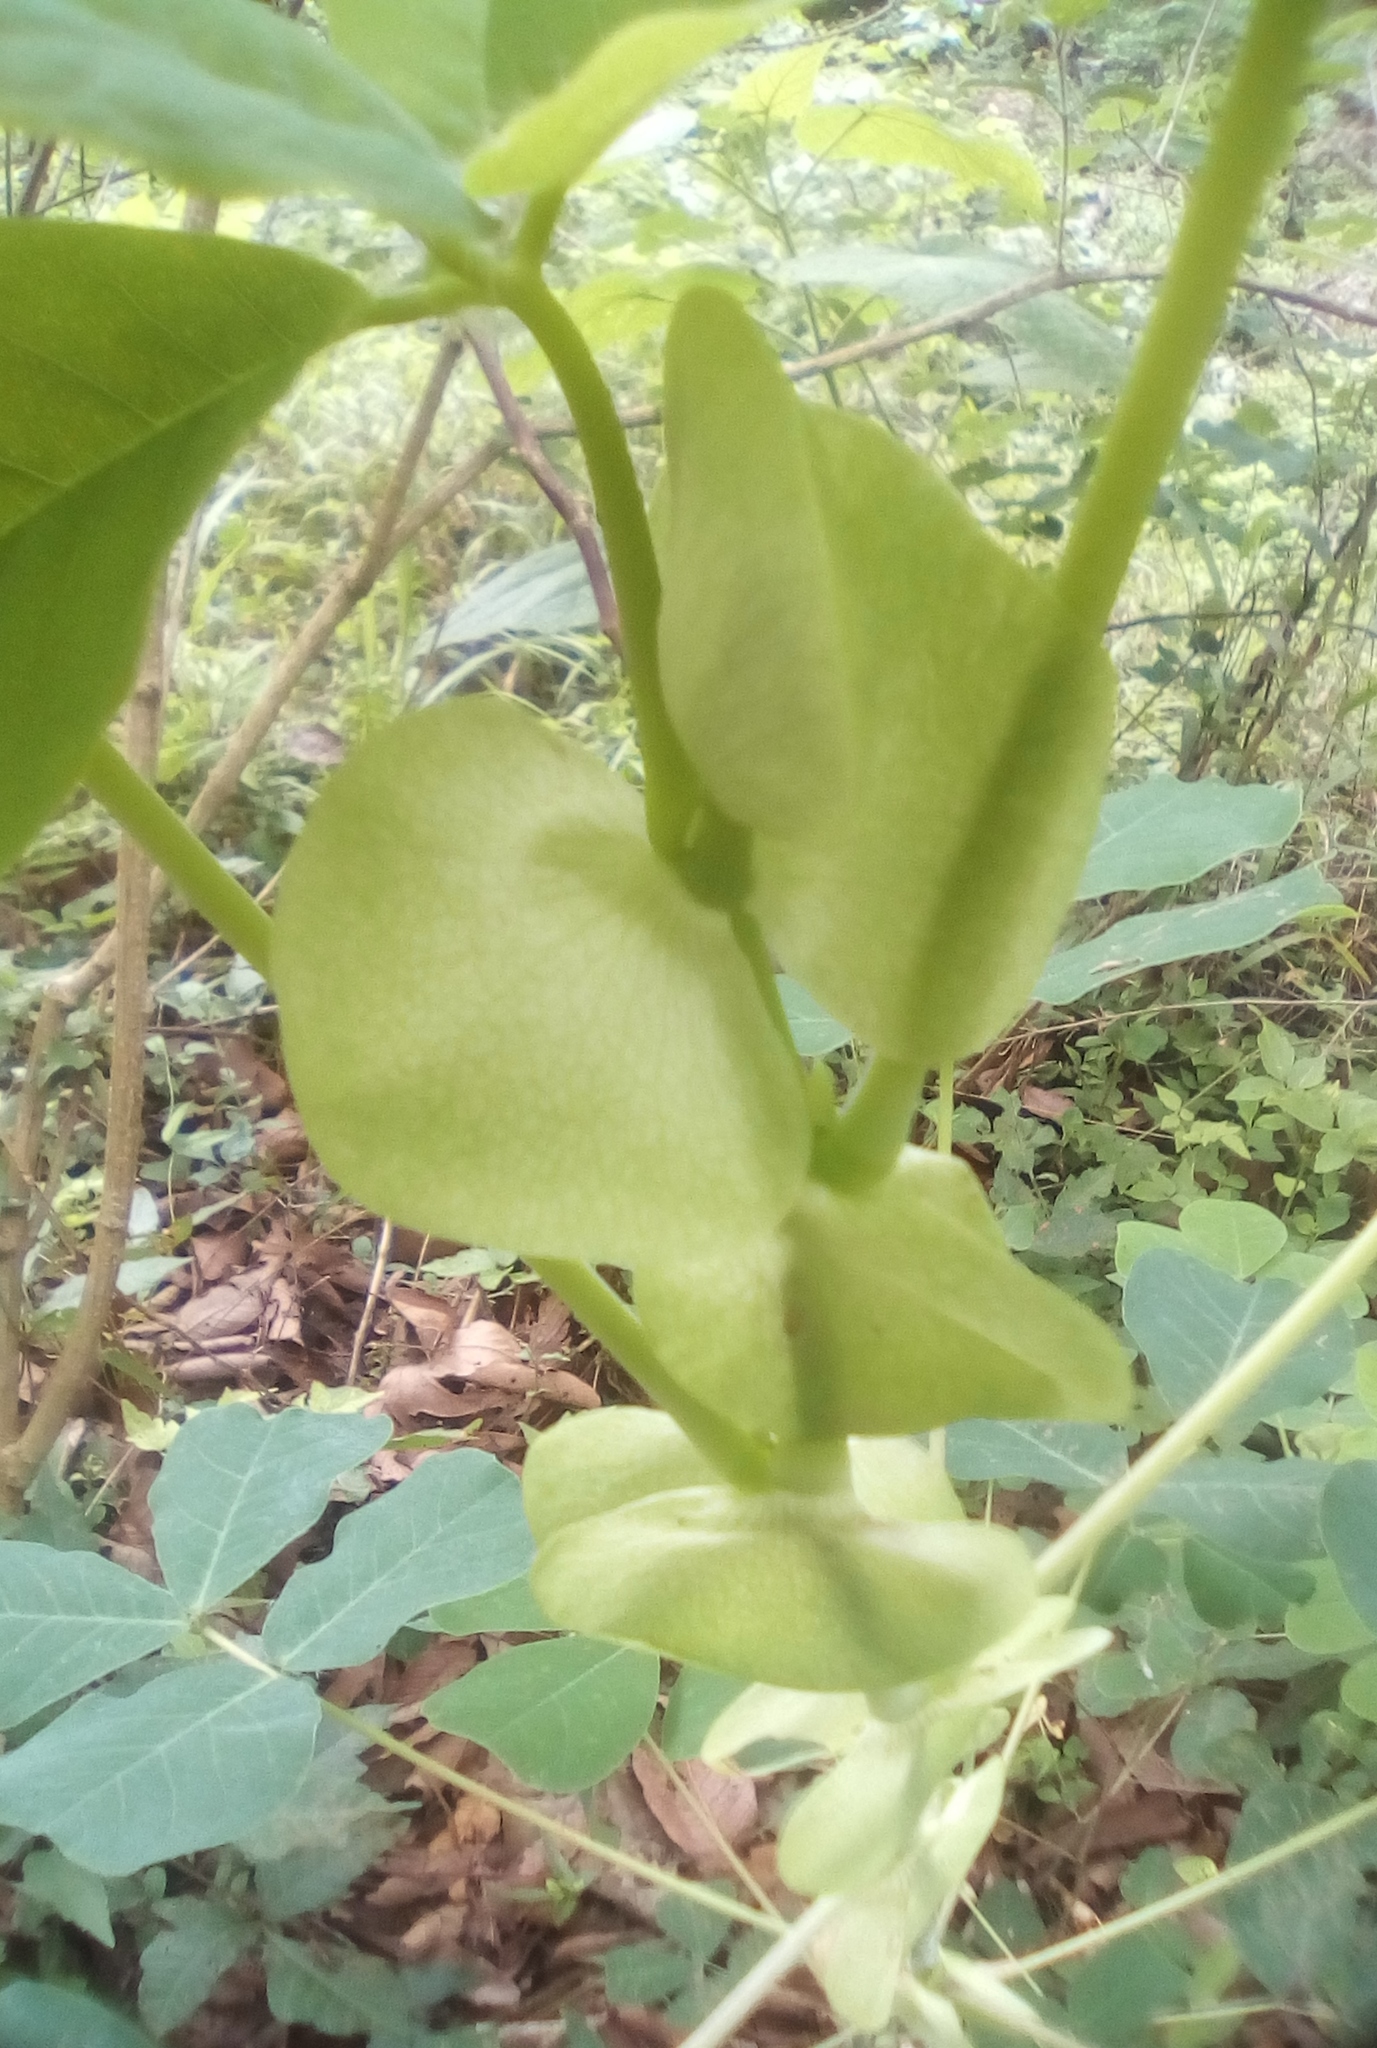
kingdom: Plantae
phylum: Tracheophyta
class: Magnoliopsida
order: Fabales
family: Fabaceae
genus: Amicia
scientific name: Amicia zygomeris
